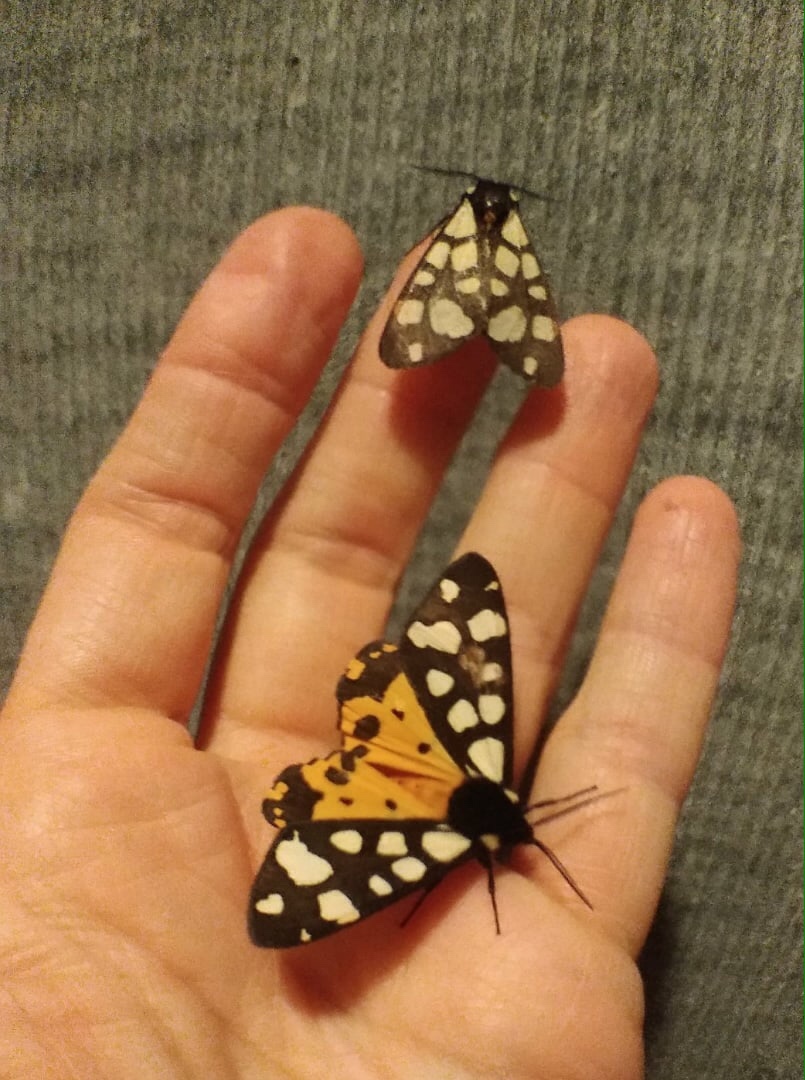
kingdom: Animalia
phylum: Arthropoda
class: Insecta
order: Lepidoptera
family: Erebidae
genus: Epicallia
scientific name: Epicallia villica
